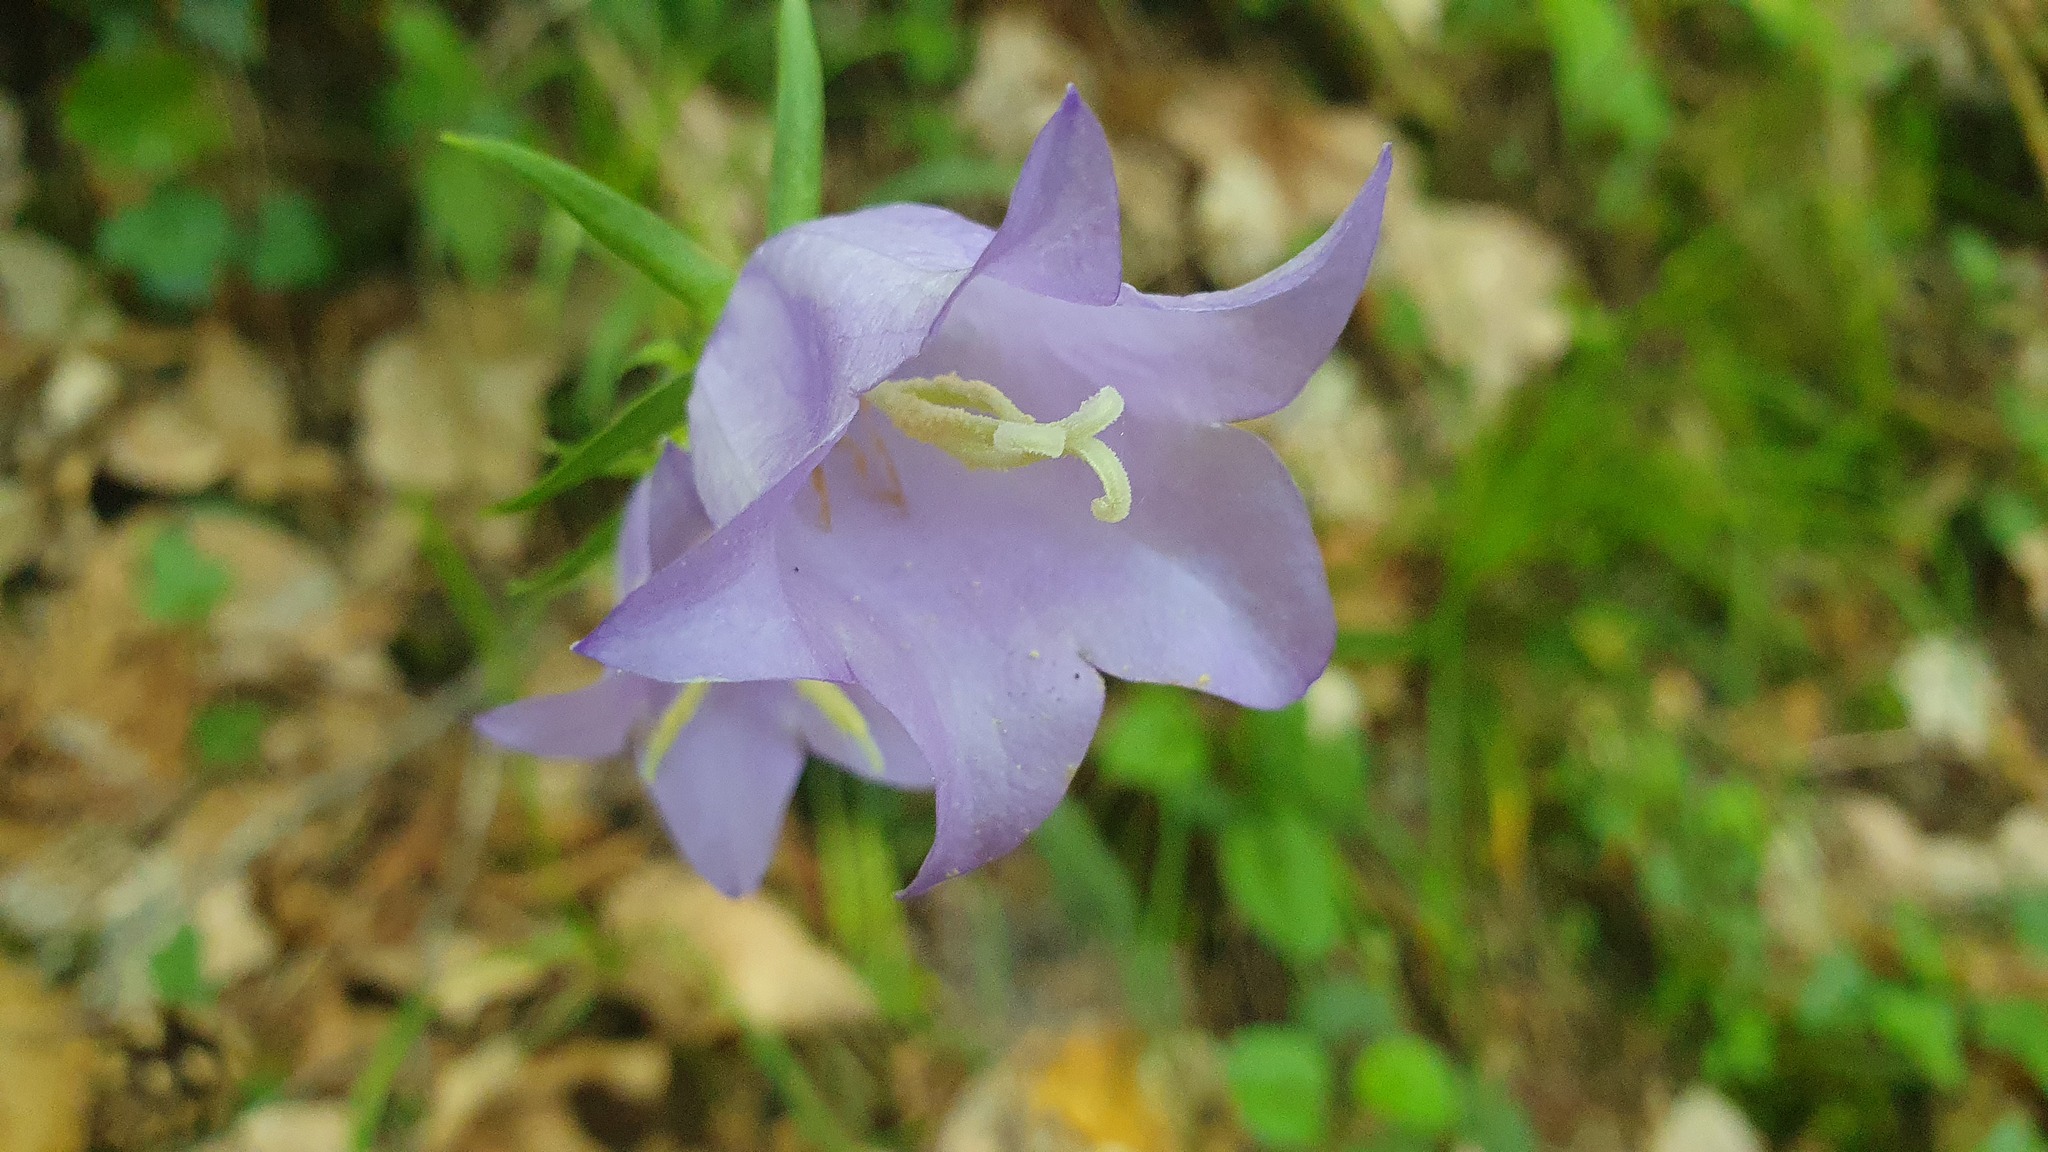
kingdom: Plantae
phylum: Tracheophyta
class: Magnoliopsida
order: Asterales
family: Campanulaceae
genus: Campanula
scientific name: Campanula persicifolia
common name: Peach-leaved bellflower
